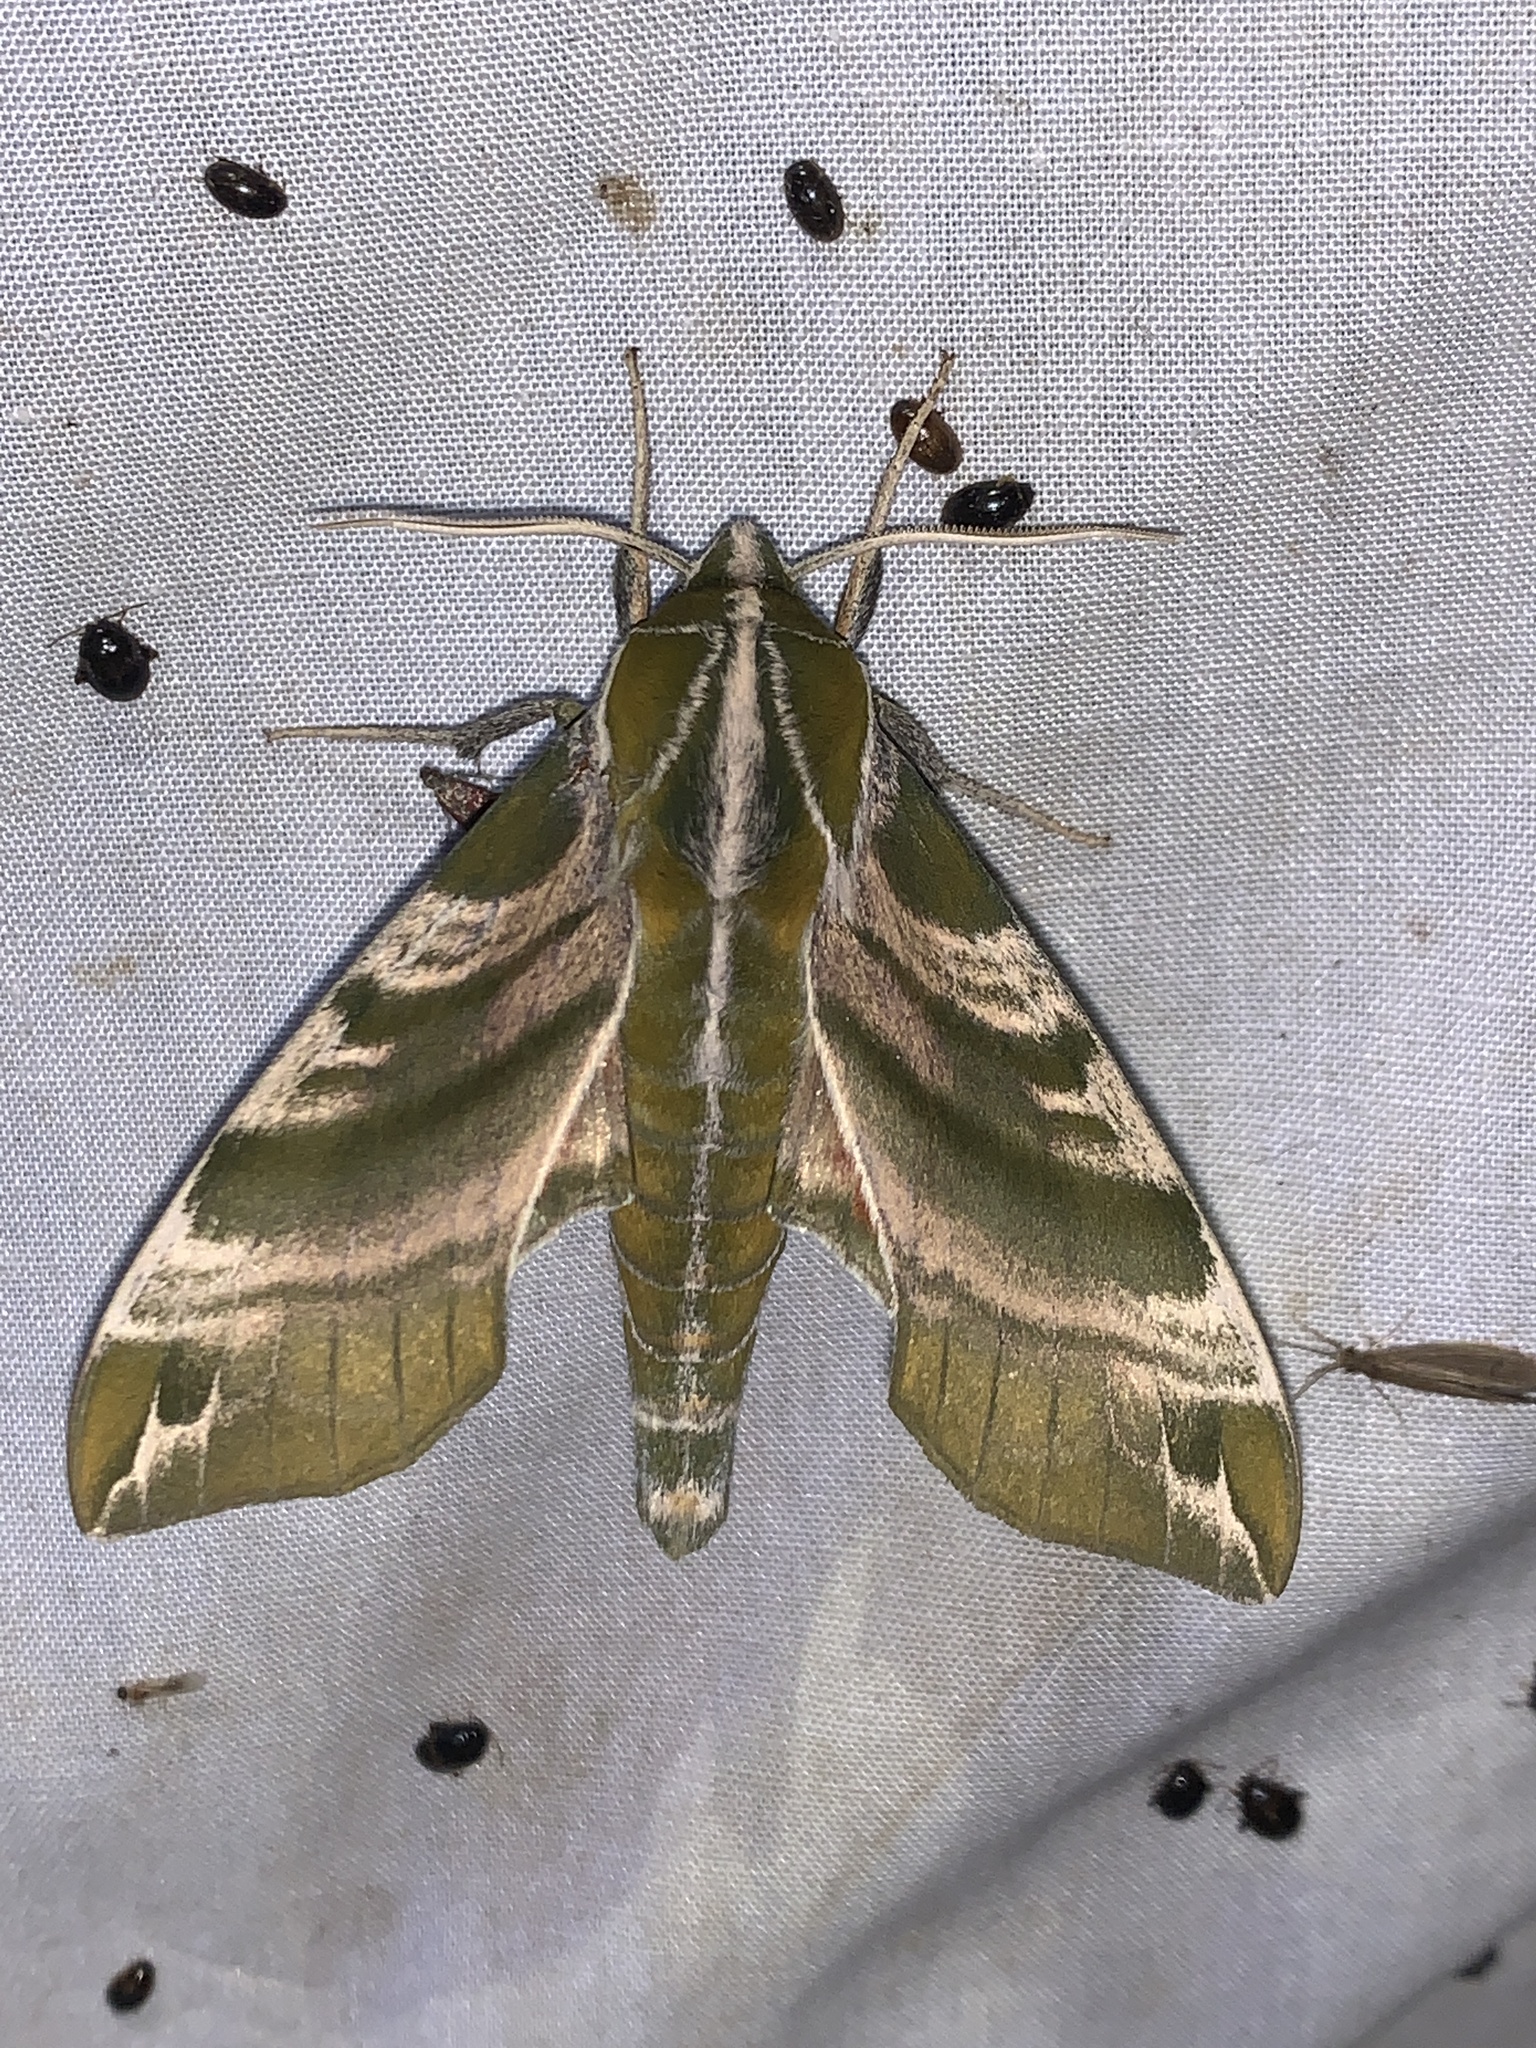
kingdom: Animalia
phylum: Arthropoda
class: Insecta
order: Lepidoptera
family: Sphingidae
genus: Darapsa
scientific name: Darapsa versicolor
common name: Hydrangea sphinx
